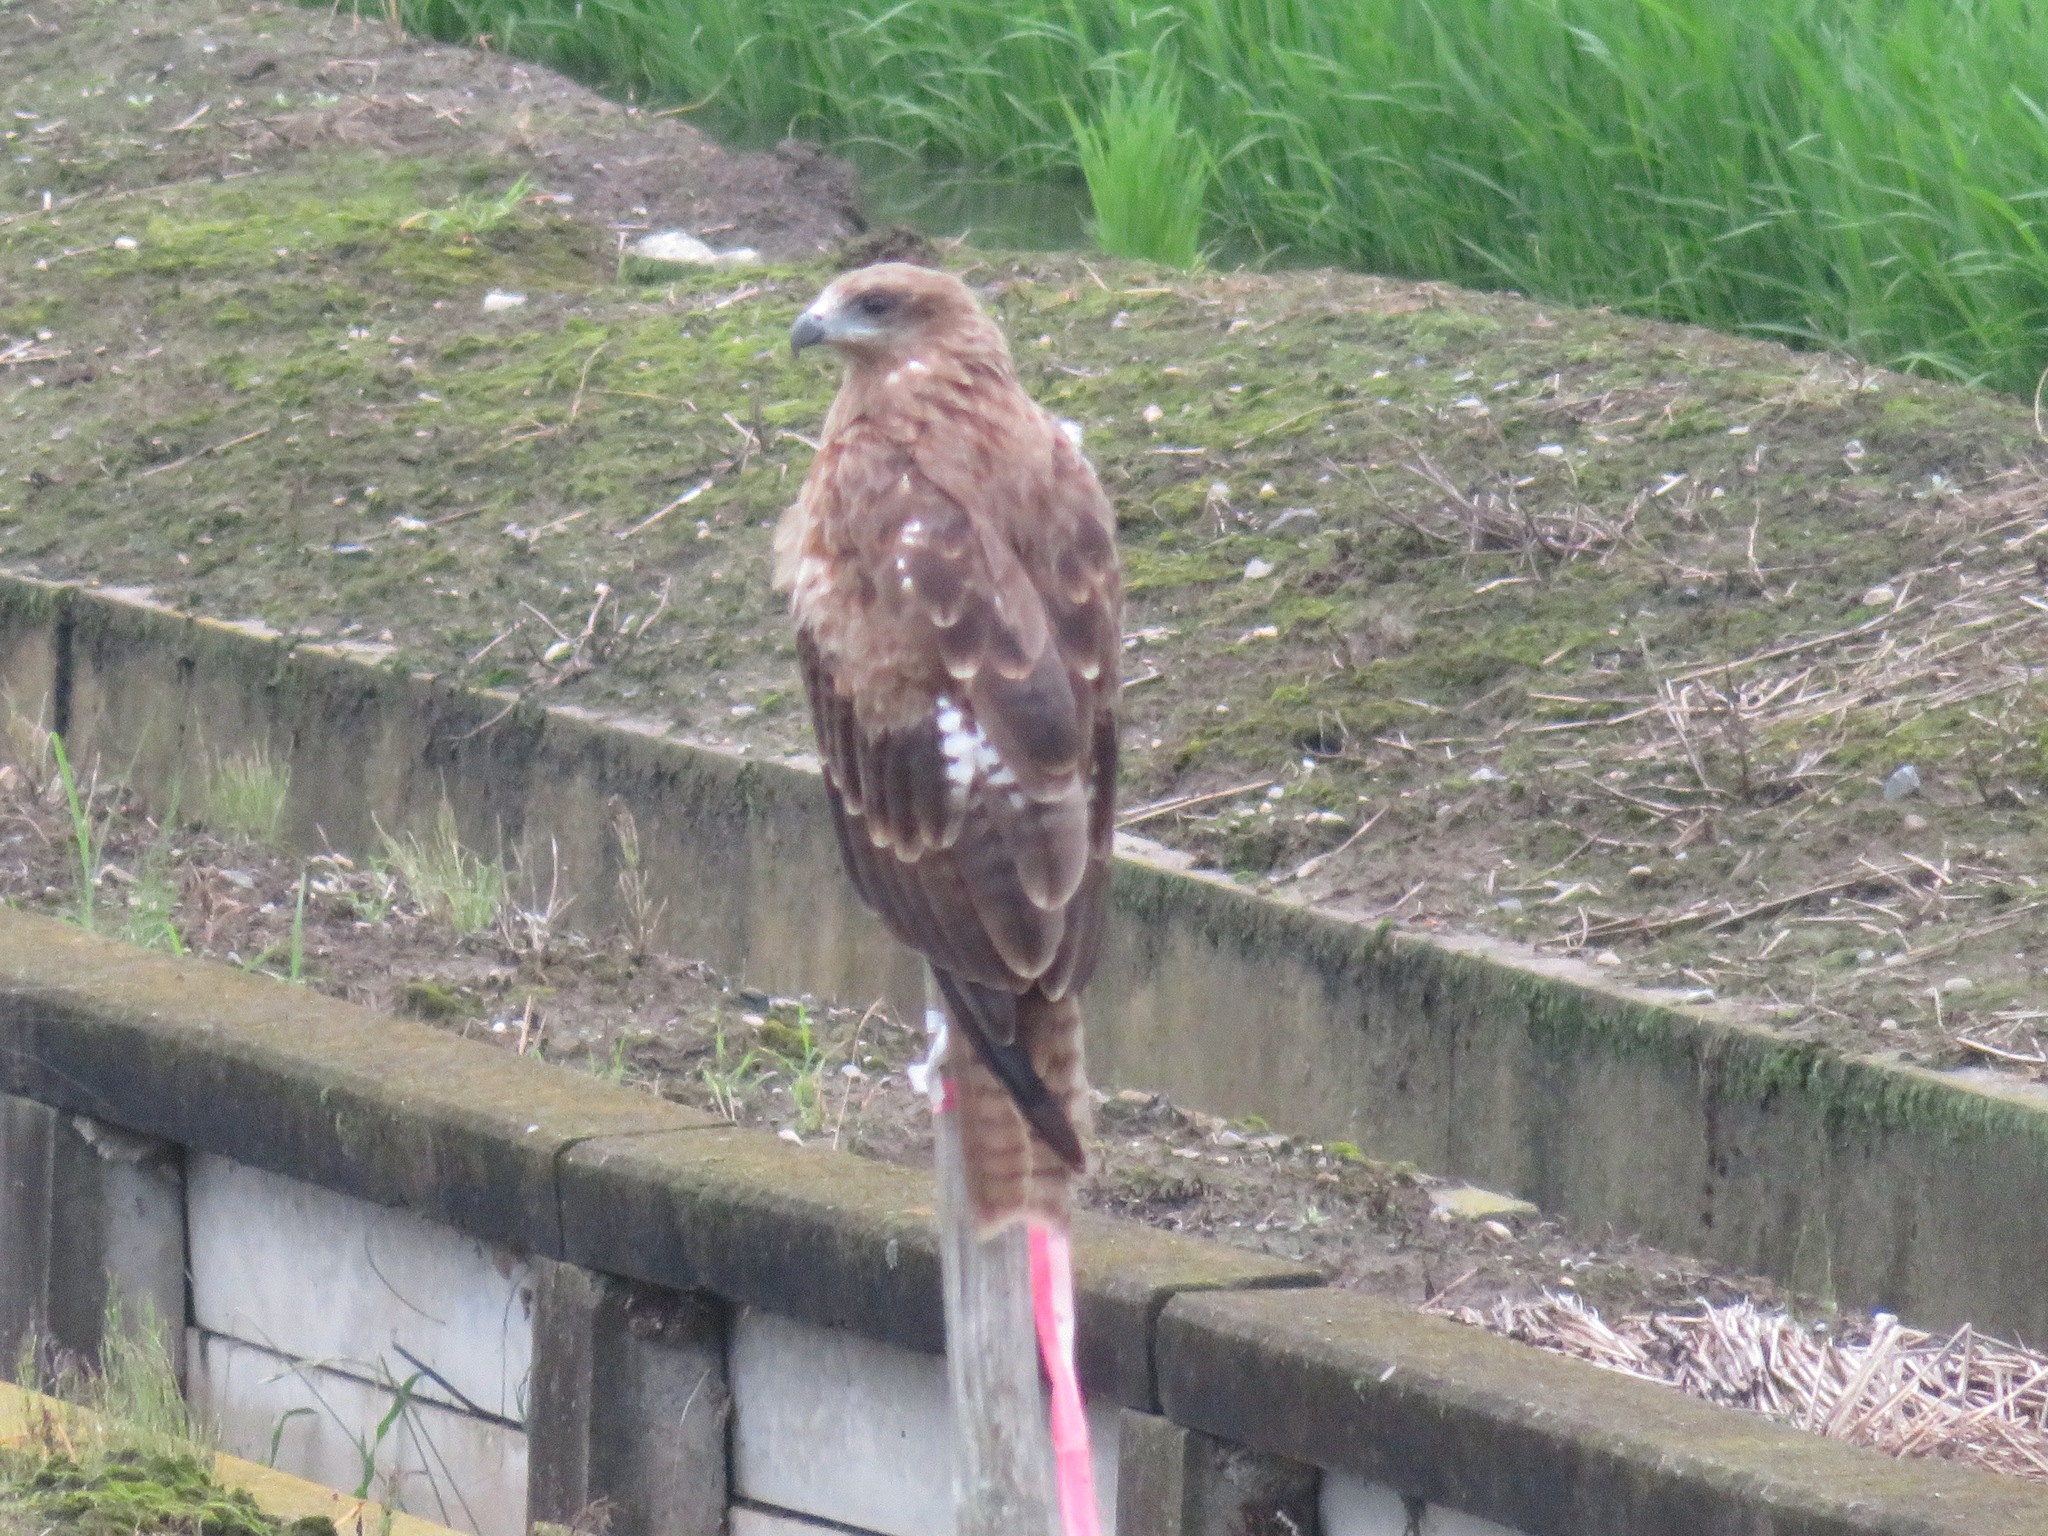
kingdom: Animalia
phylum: Chordata
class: Aves
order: Accipitriformes
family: Accipitridae
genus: Milvus
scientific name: Milvus migrans
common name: Black kite
